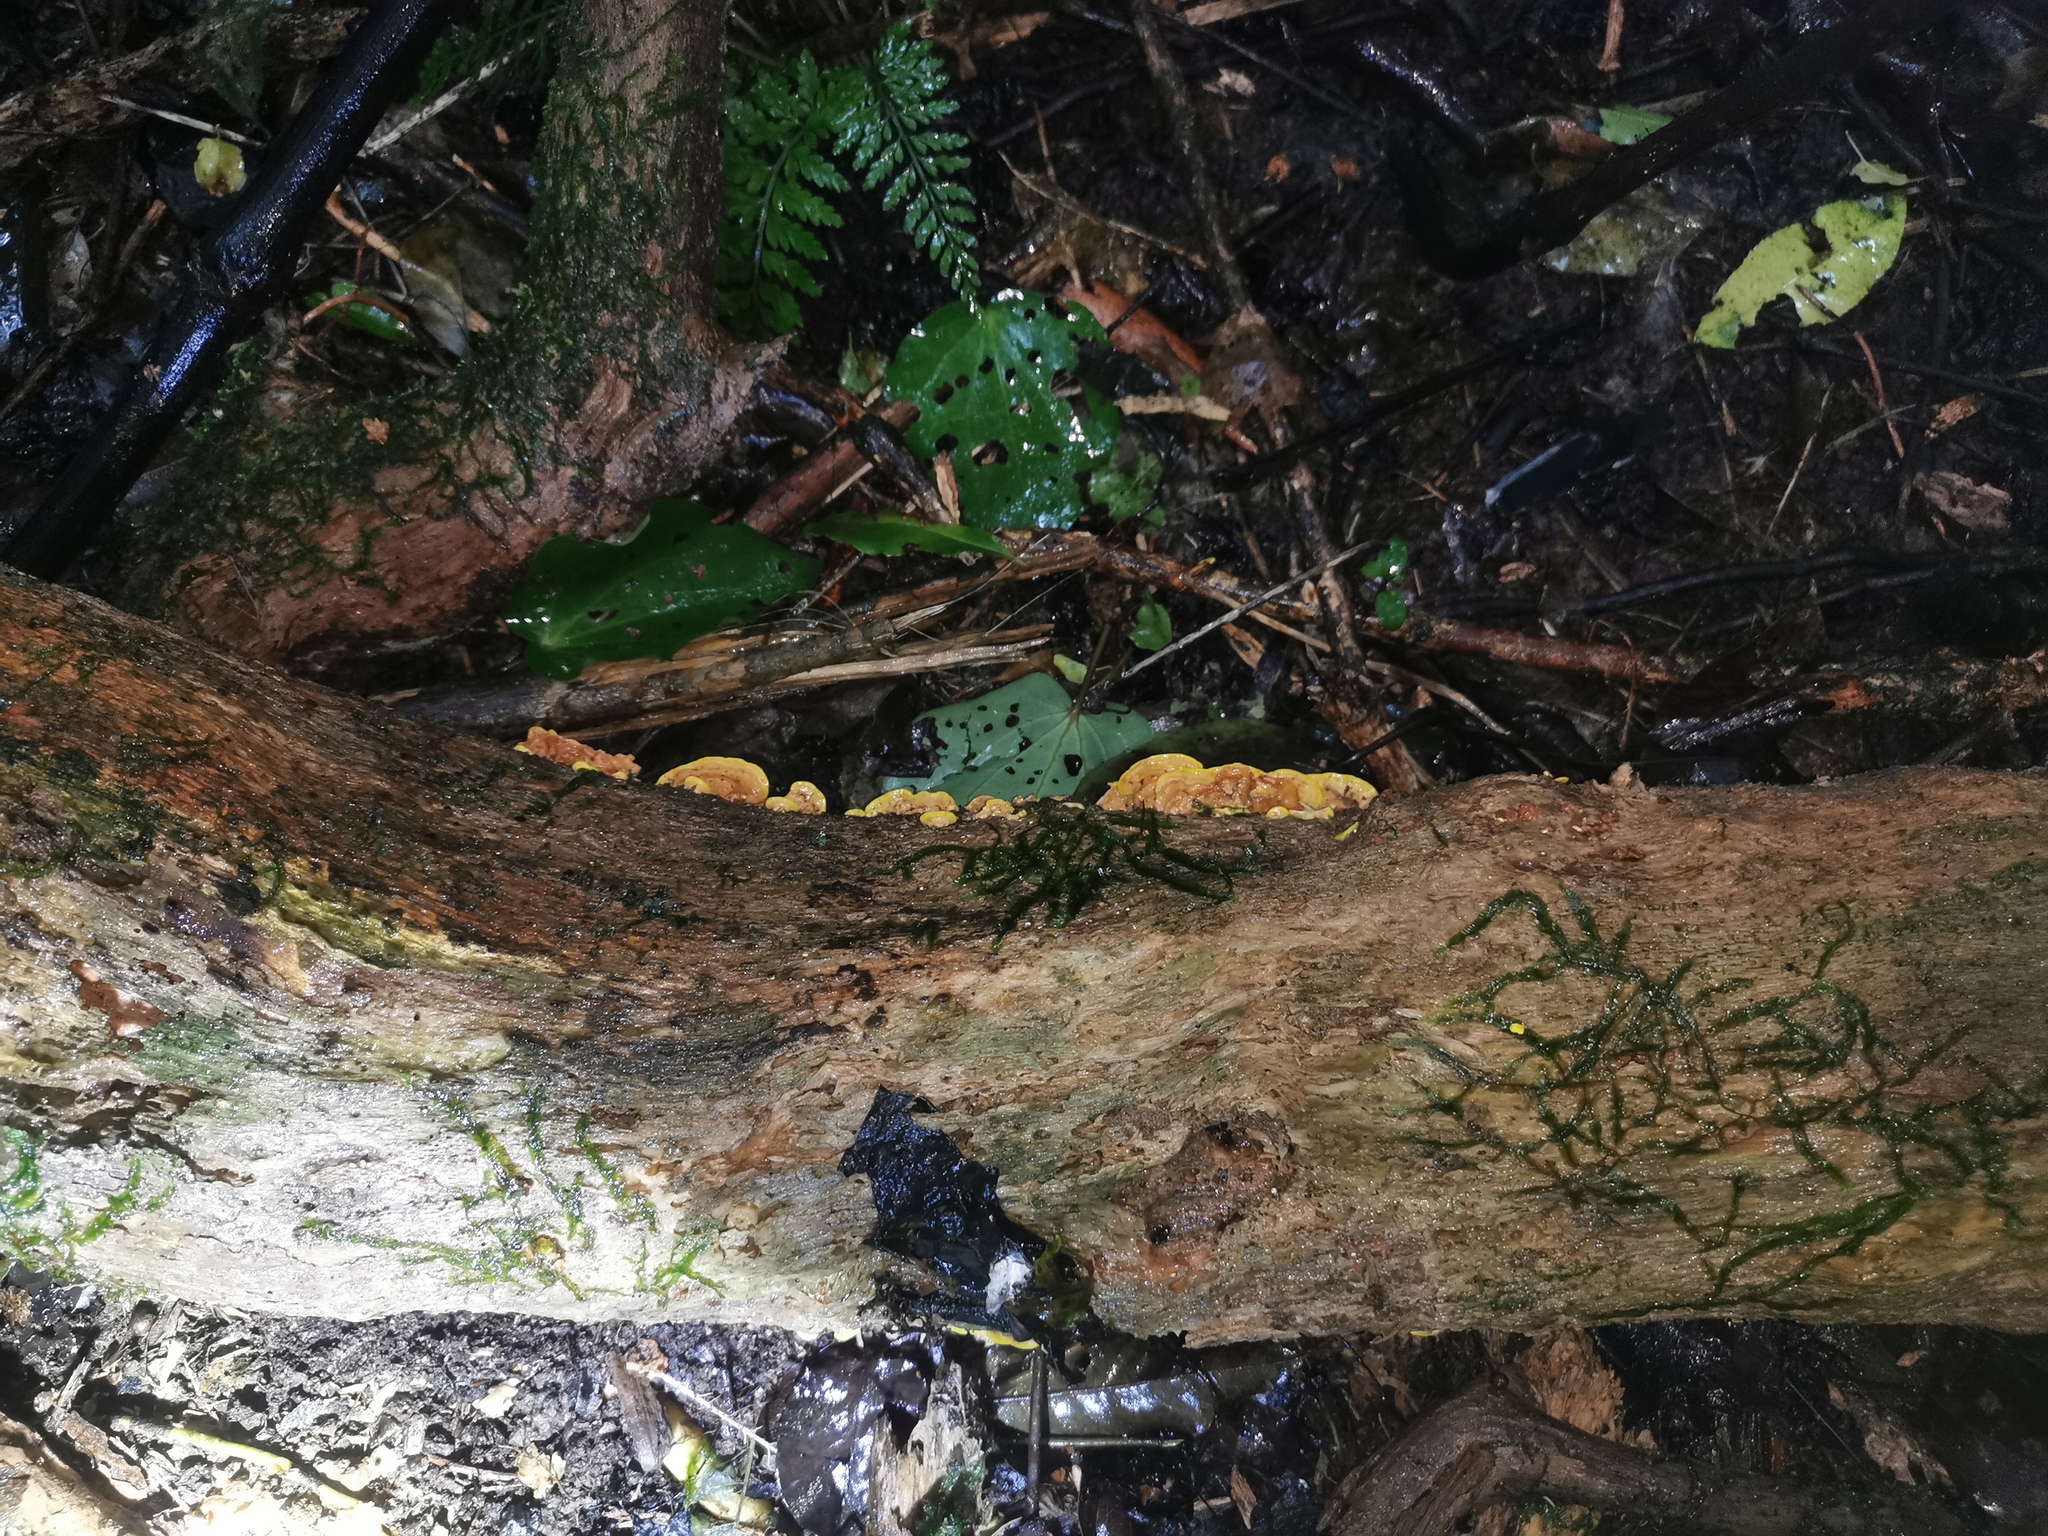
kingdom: Fungi
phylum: Basidiomycota
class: Agaricomycetes
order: Polyporales
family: Steccherinaceae
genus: Austeria
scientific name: Austeria citrea
